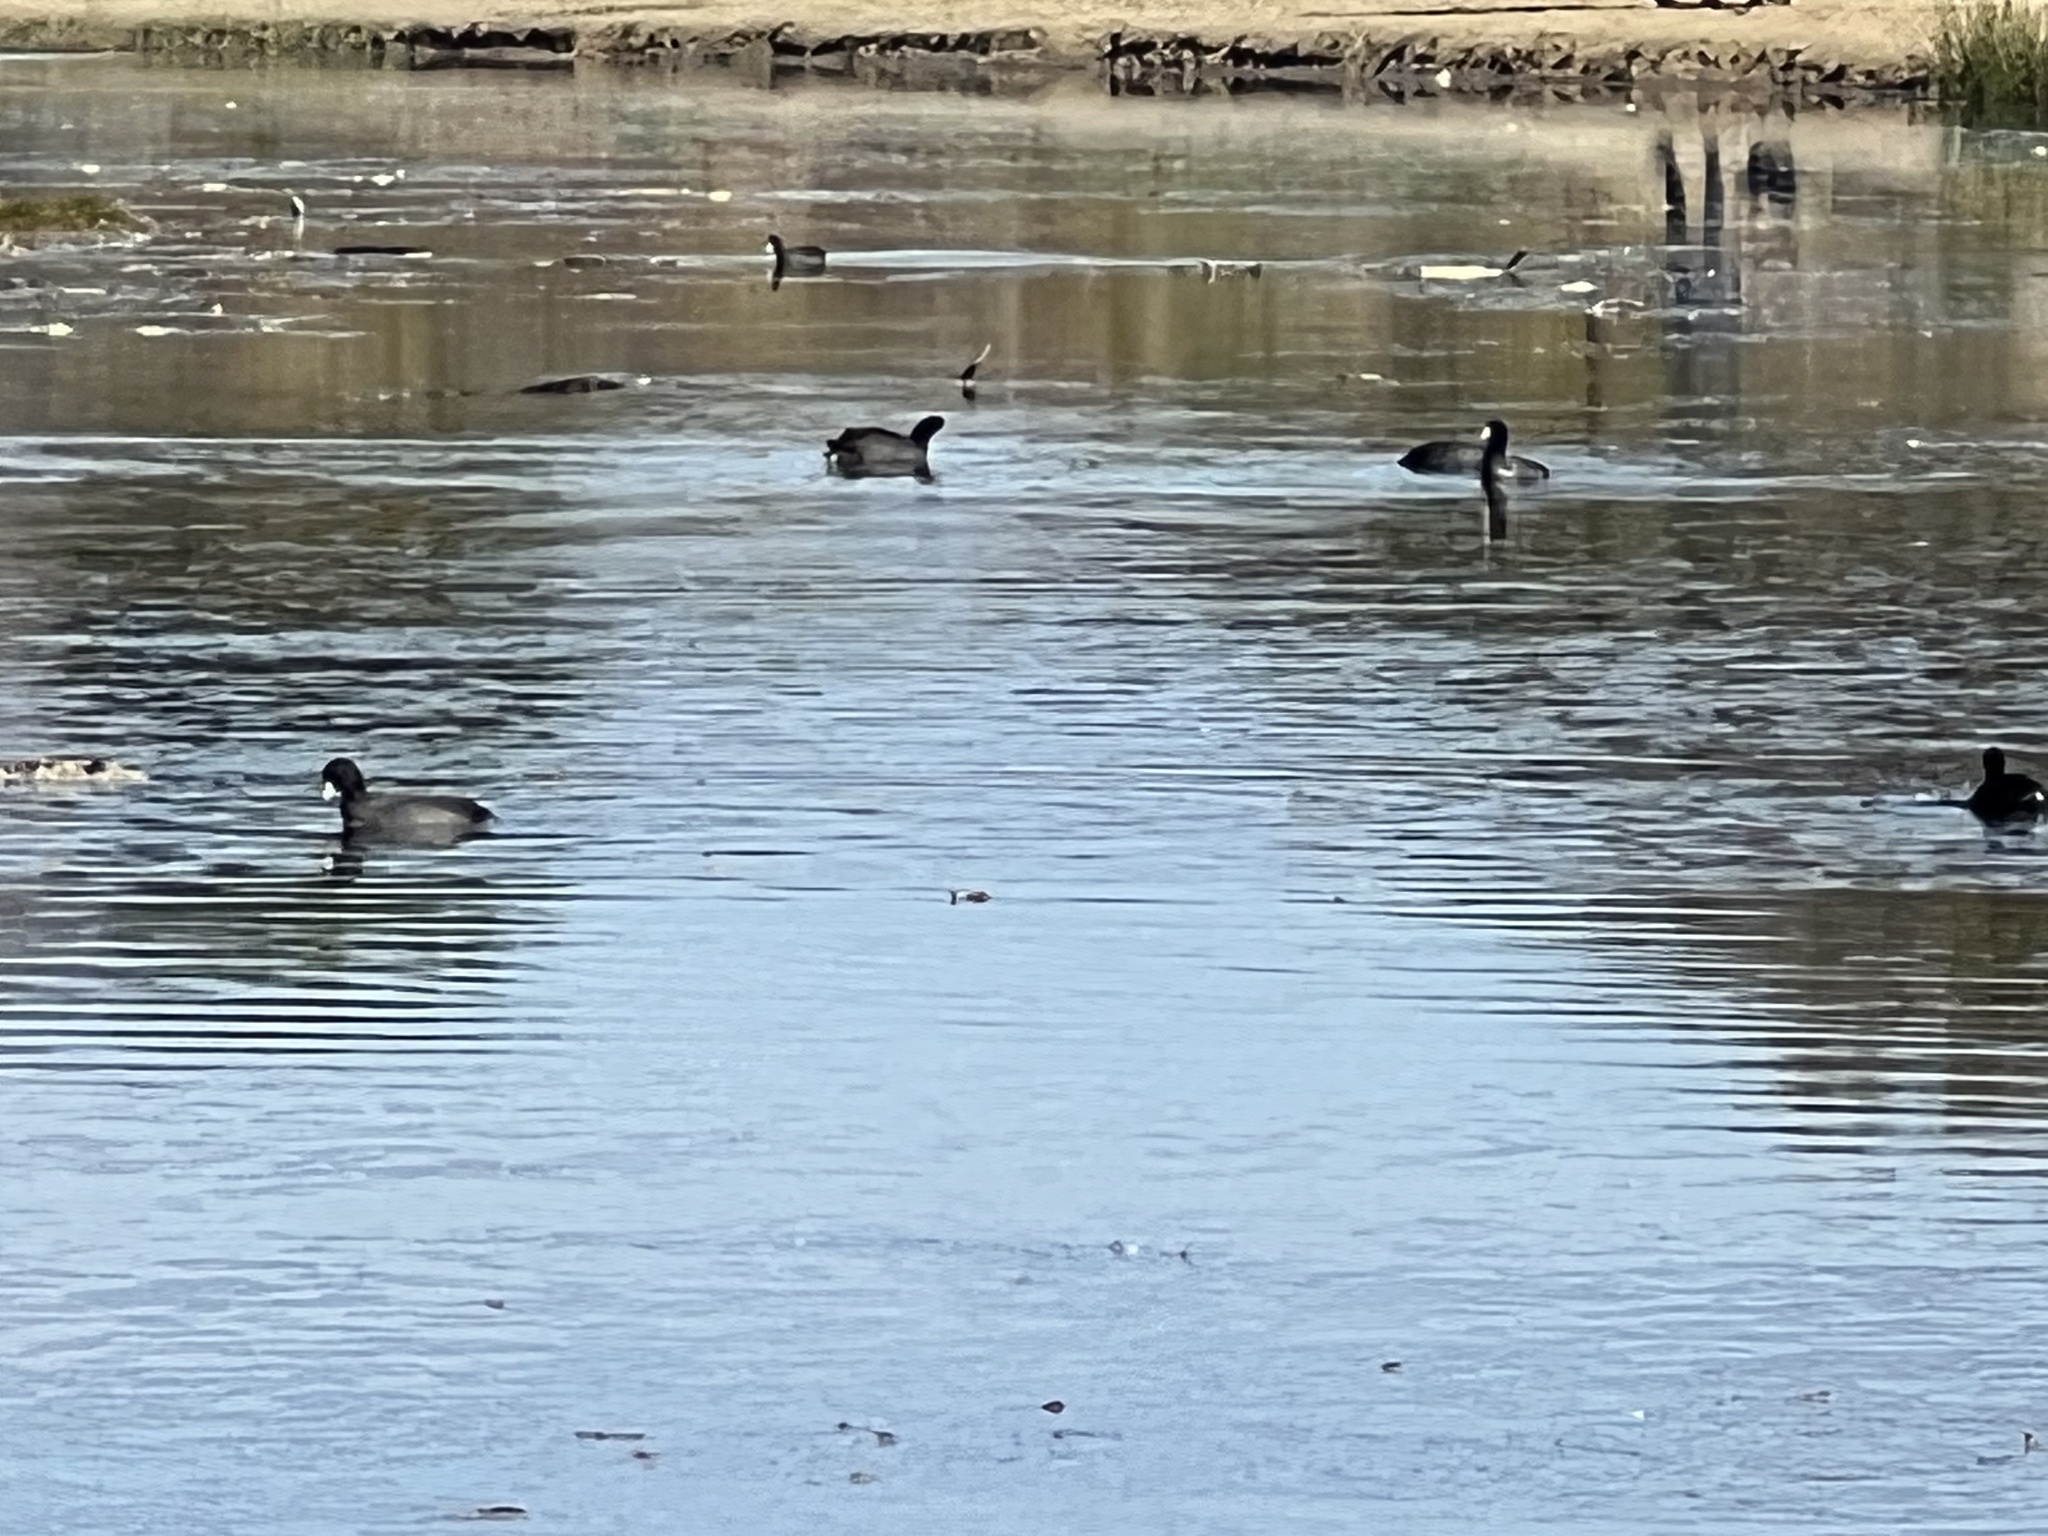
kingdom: Animalia
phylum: Chordata
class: Aves
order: Gruiformes
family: Rallidae
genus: Fulica
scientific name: Fulica americana
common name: American coot
